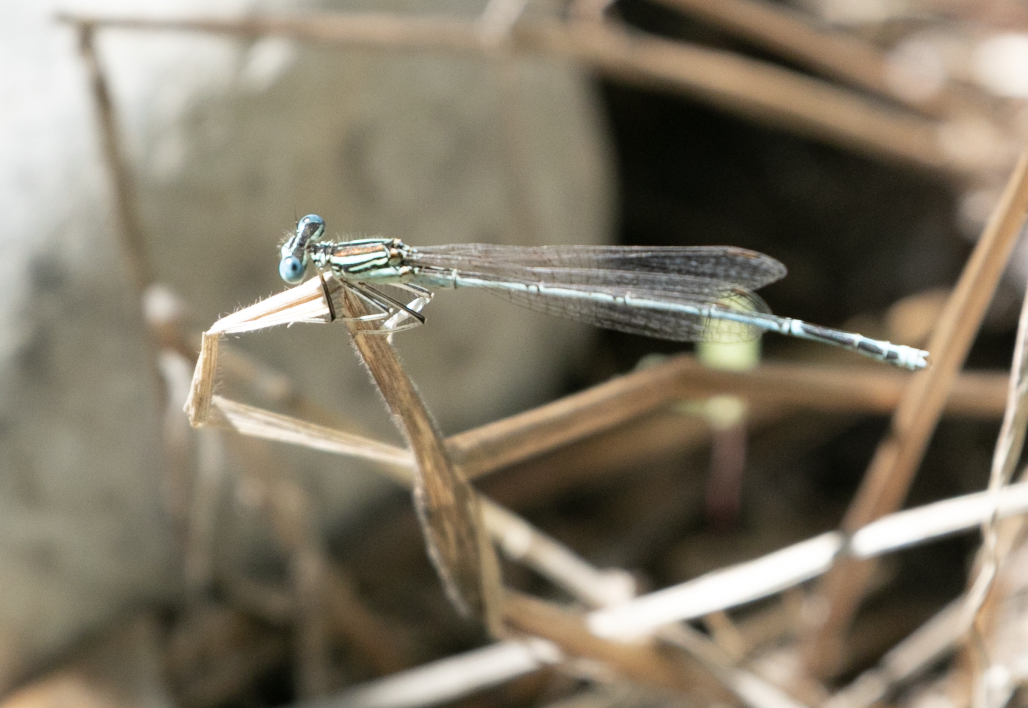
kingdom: Animalia
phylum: Arthropoda
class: Insecta
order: Odonata
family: Platycnemididae
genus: Platycnemis
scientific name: Platycnemis pennipes
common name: White-legged damselfly
